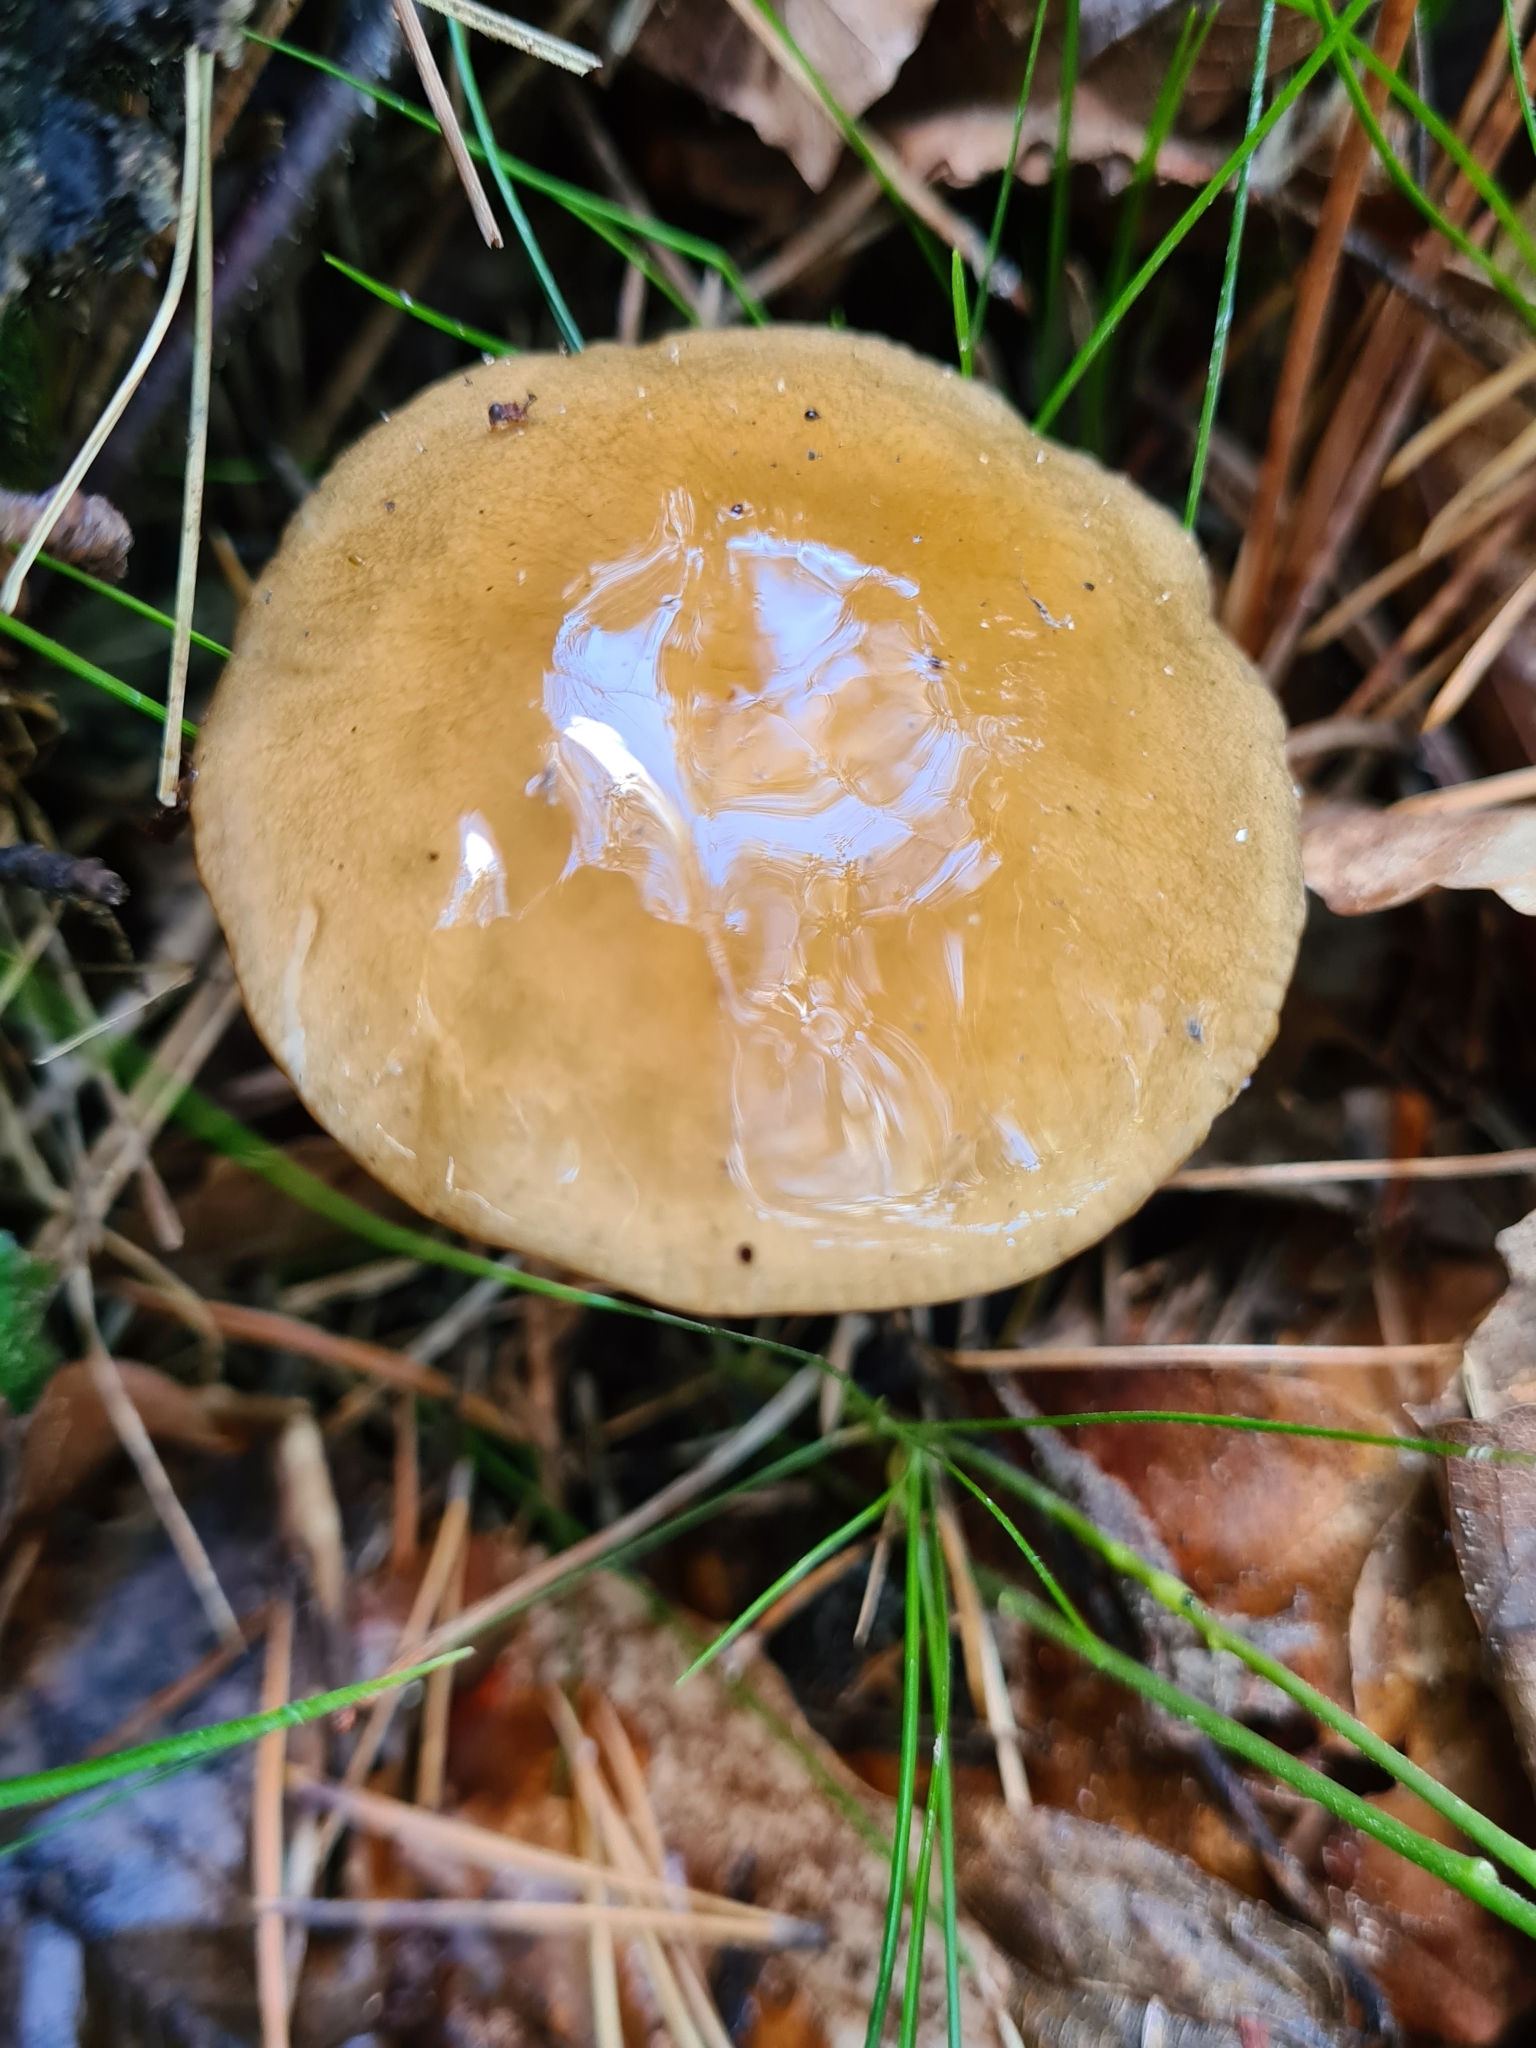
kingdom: Fungi
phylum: Basidiomycota
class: Agaricomycetes
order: Agaricales
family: Physalacriaceae
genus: Hymenopellis
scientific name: Hymenopellis radicata
